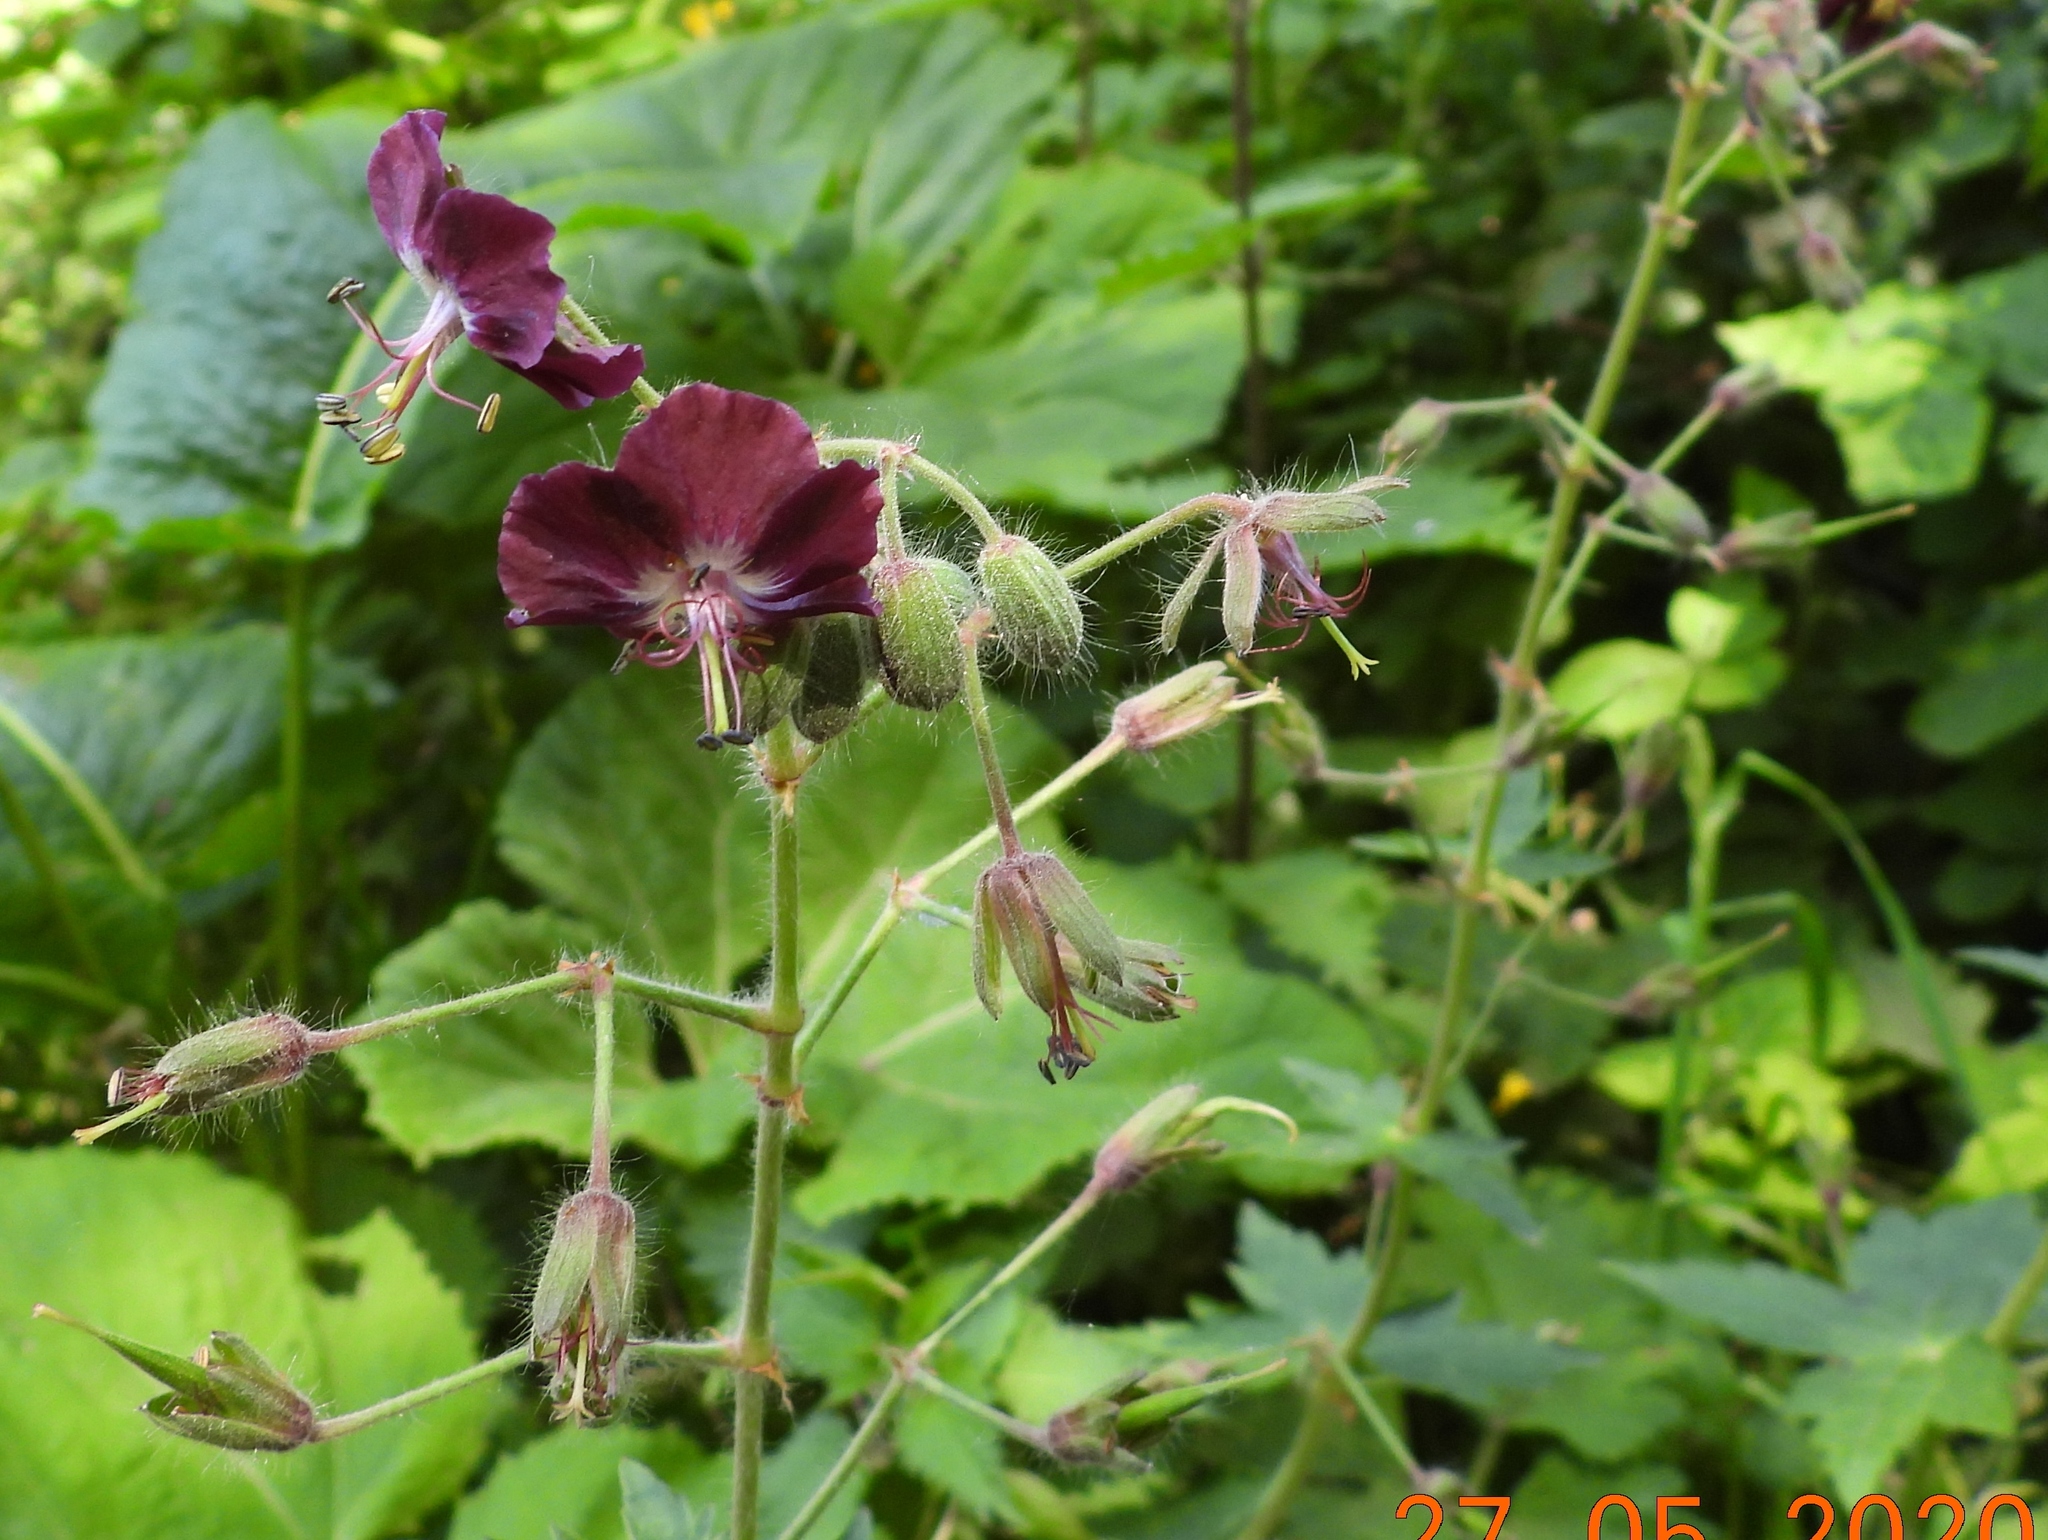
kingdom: Plantae
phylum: Tracheophyta
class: Magnoliopsida
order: Geraniales
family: Geraniaceae
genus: Geranium
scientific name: Geranium phaeum
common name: Dusky crane's-bill
